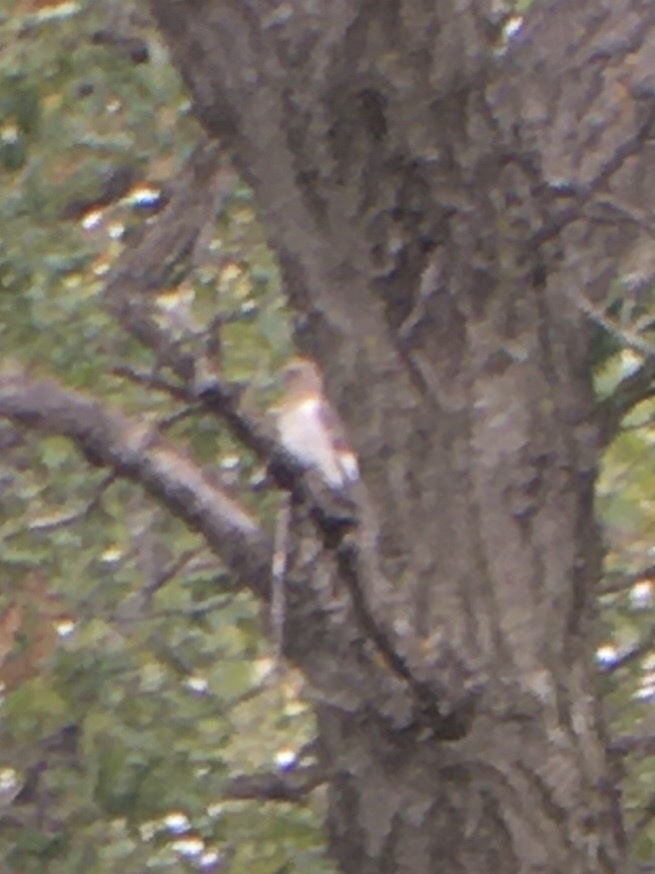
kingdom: Animalia
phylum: Chordata
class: Aves
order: Piciformes
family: Picidae
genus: Melanerpes
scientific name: Melanerpes erythrocephalus
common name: Red-headed woodpecker
